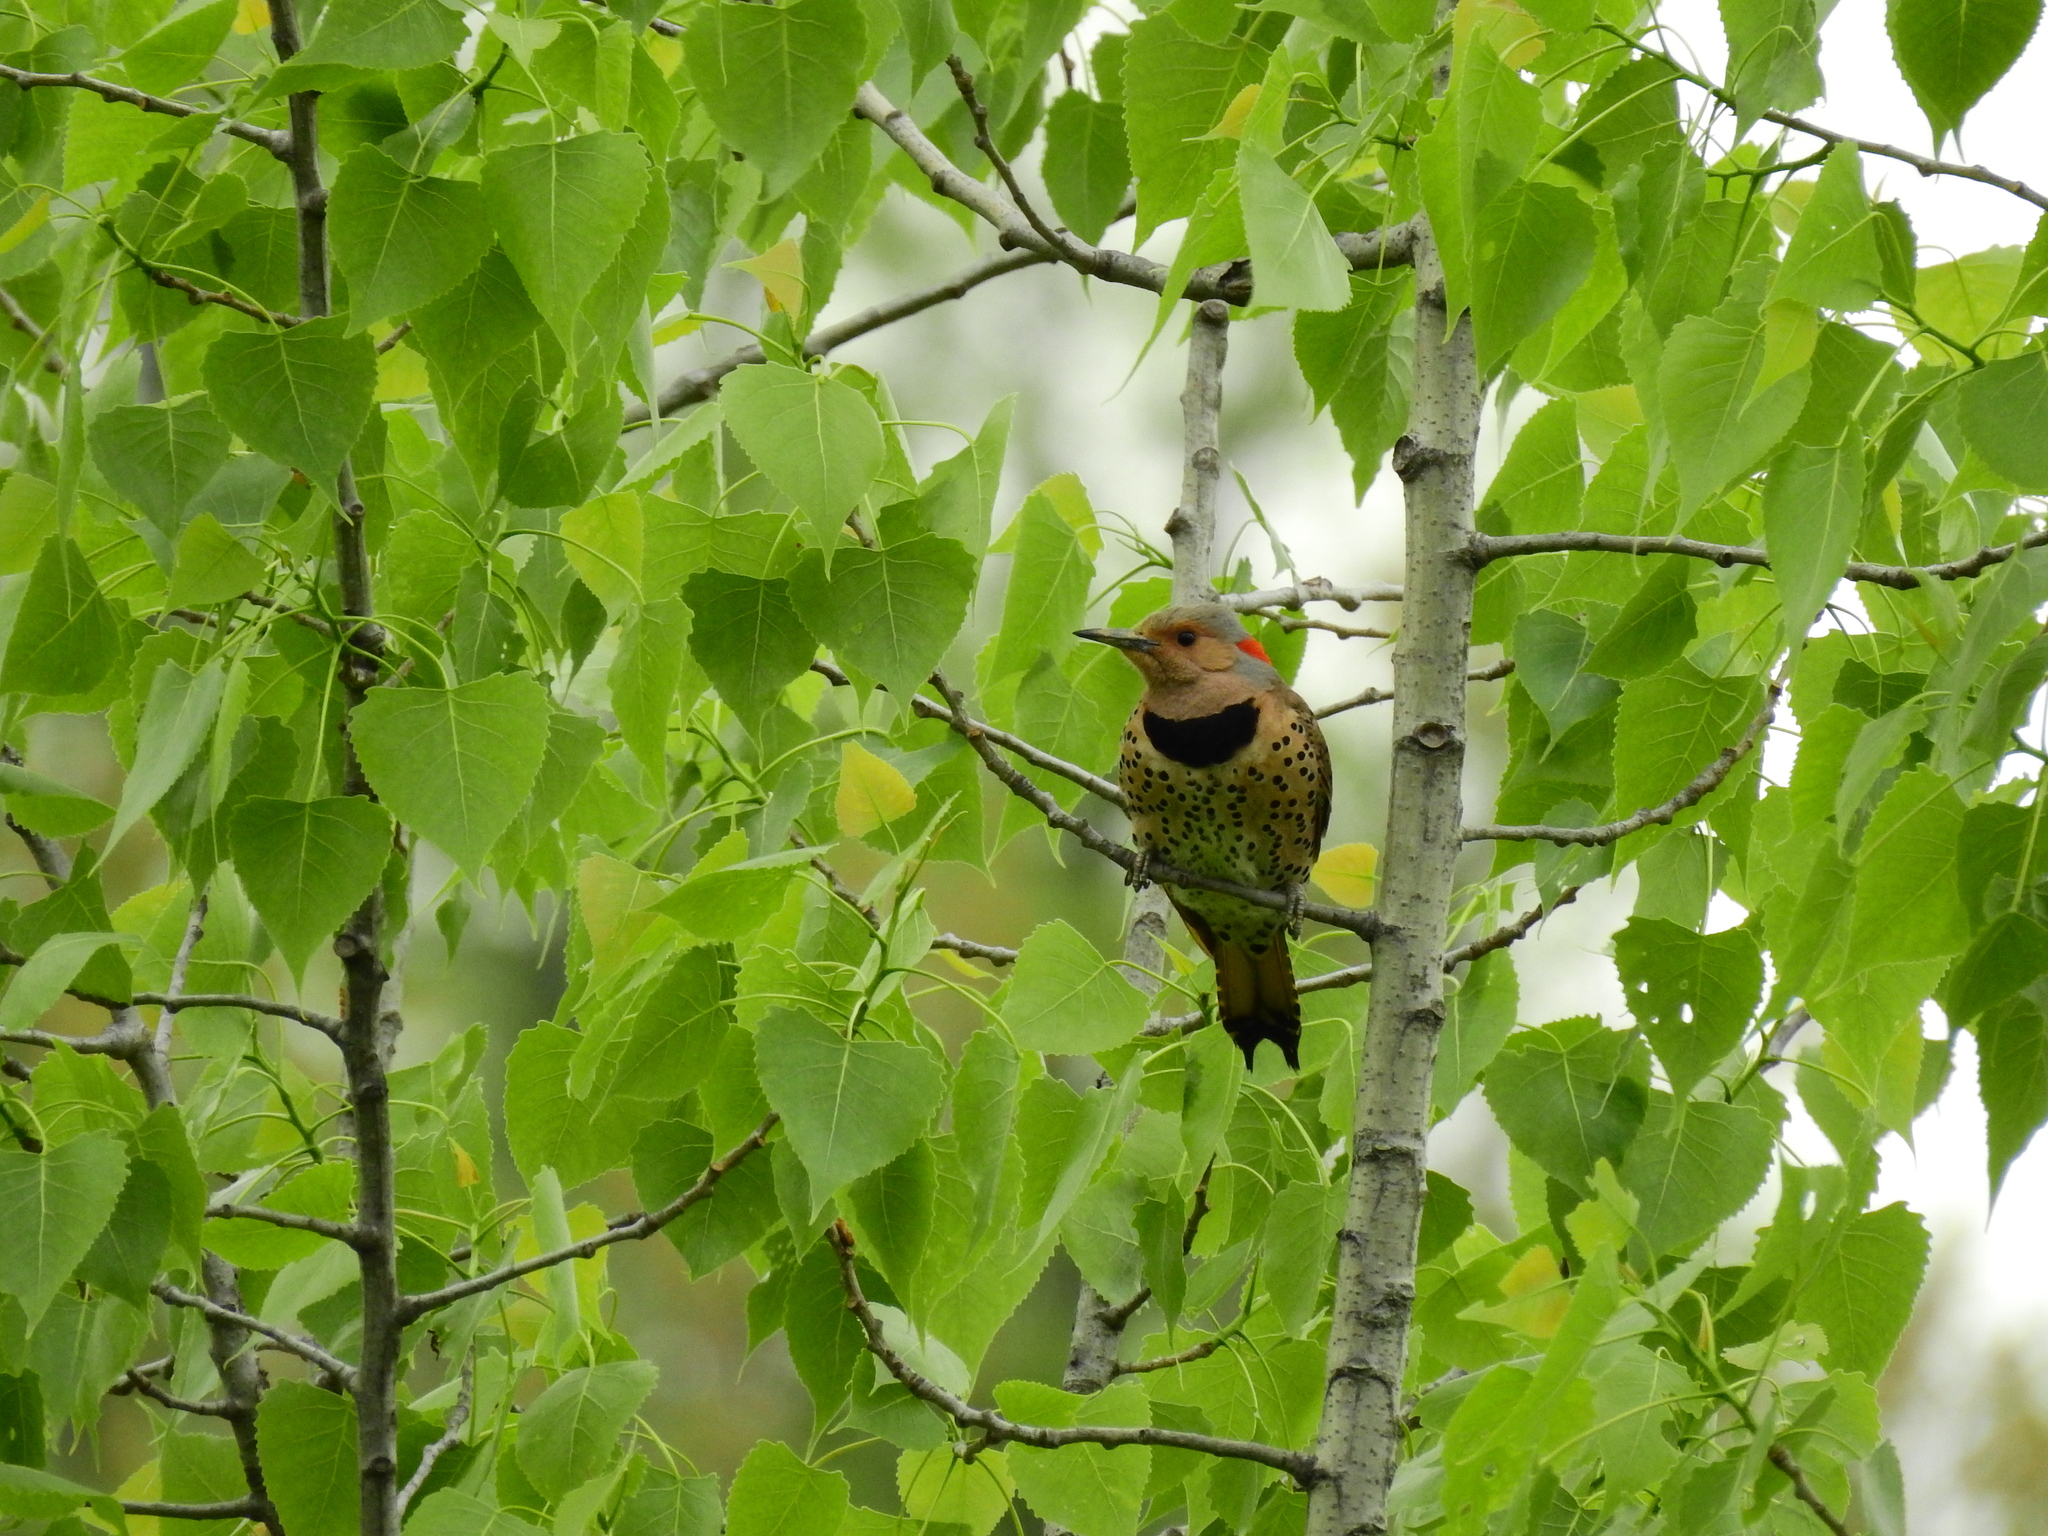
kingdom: Animalia
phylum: Chordata
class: Aves
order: Piciformes
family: Picidae
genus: Colaptes
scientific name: Colaptes auratus
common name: Northern flicker
